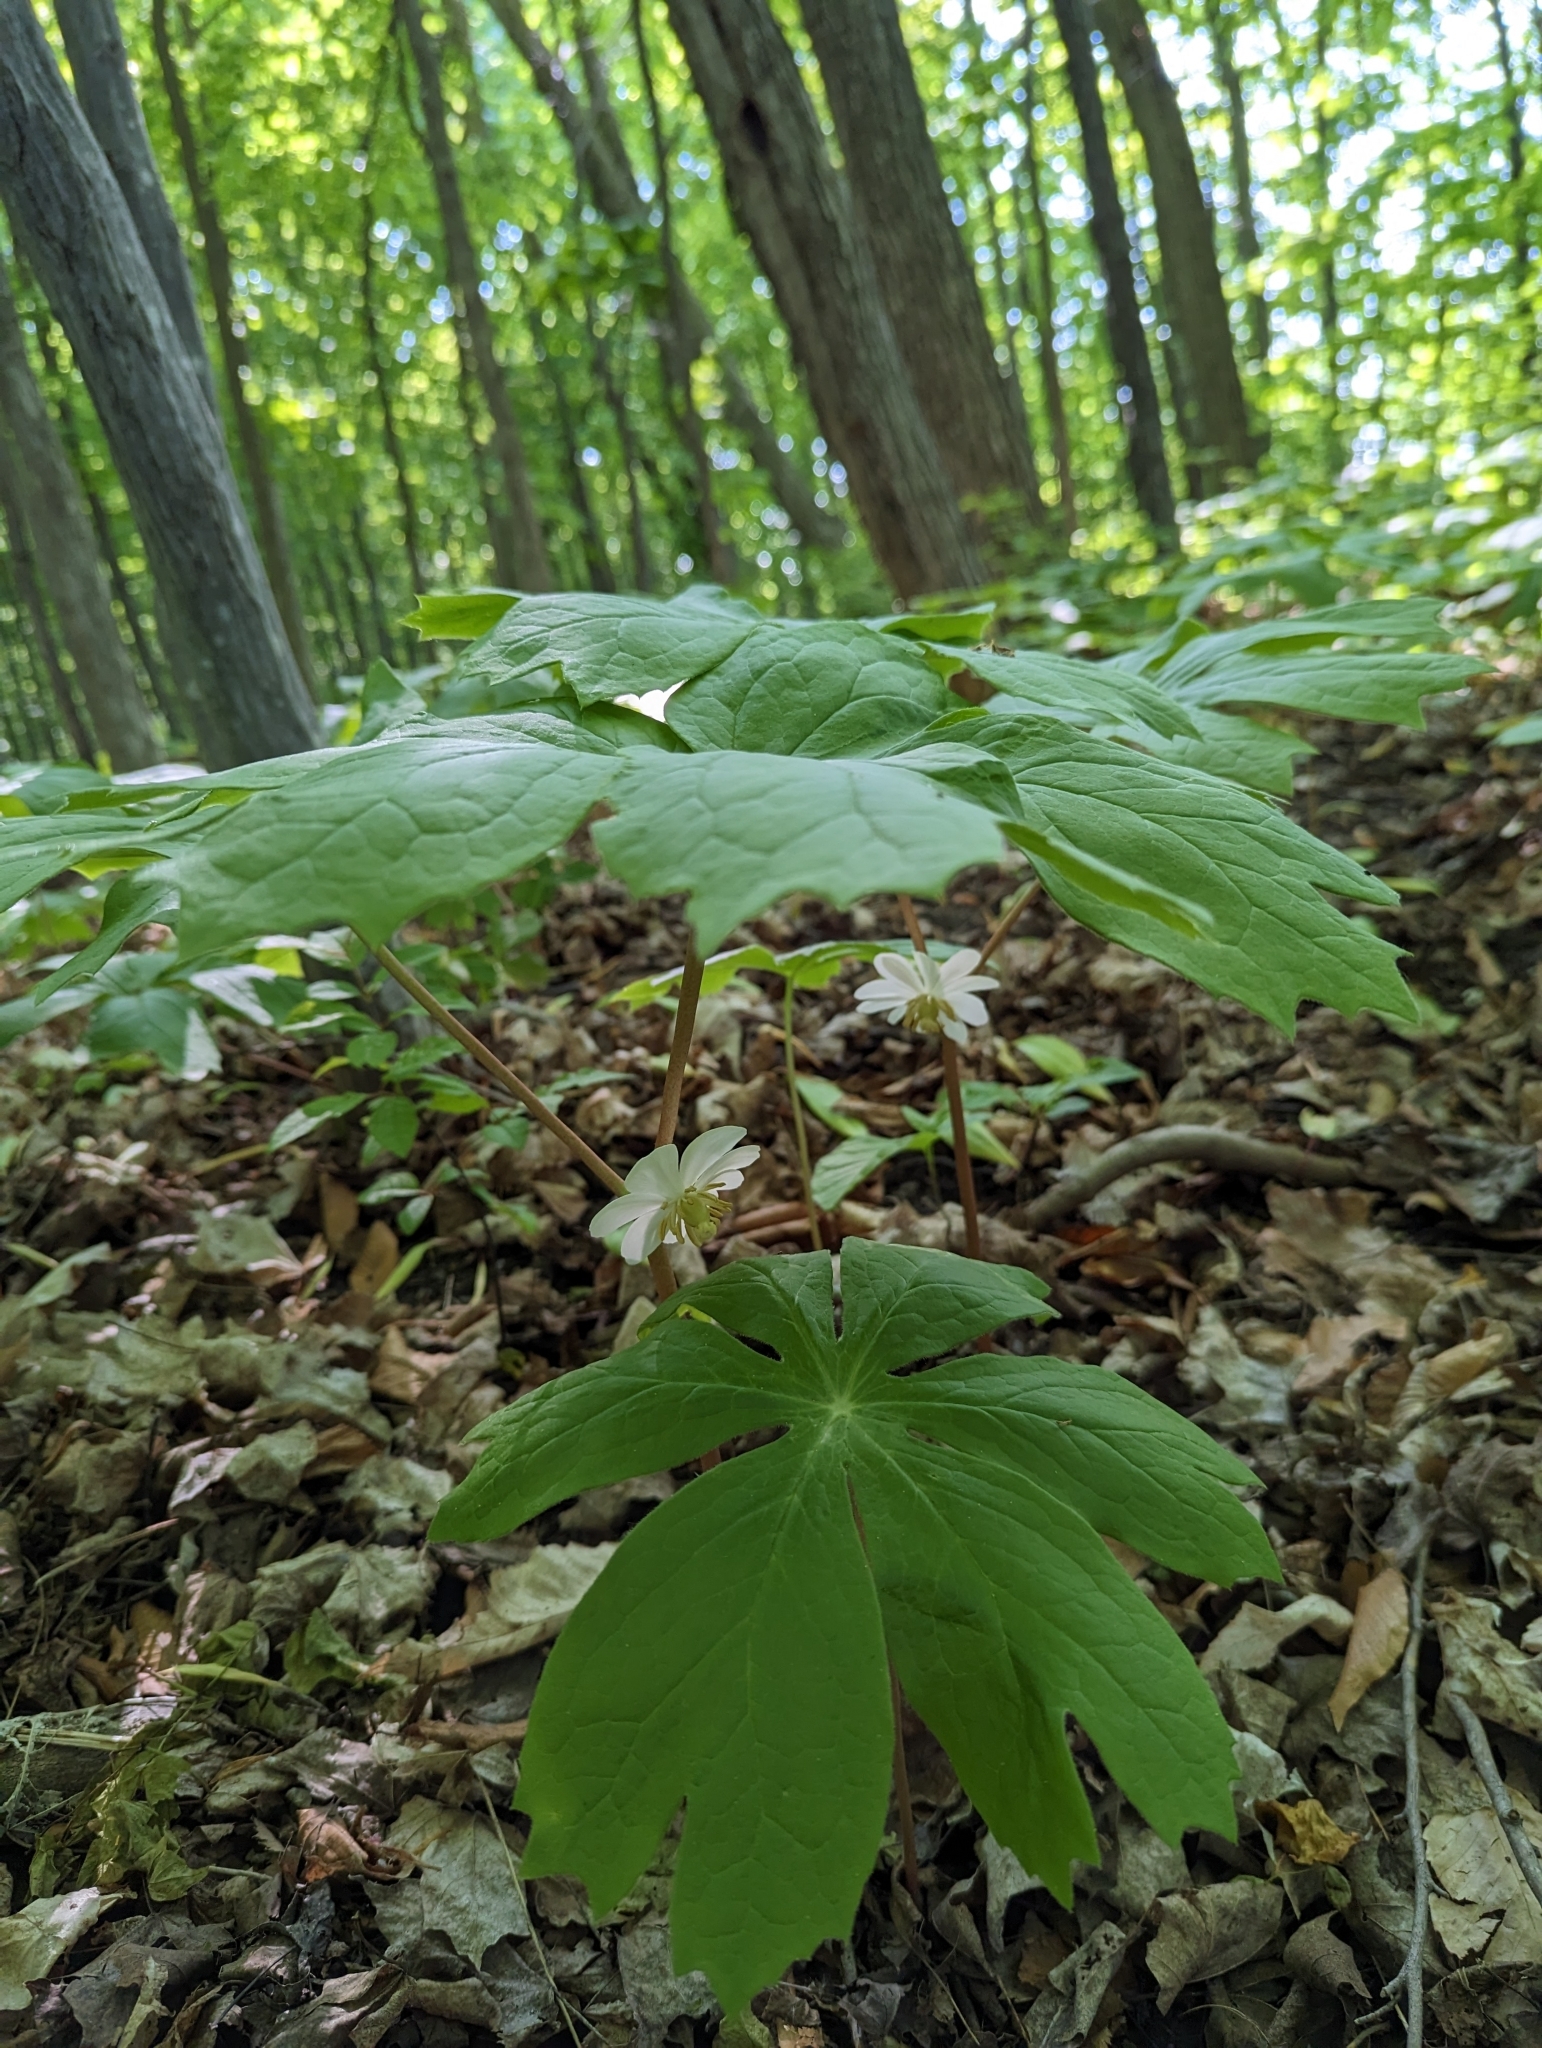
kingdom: Plantae
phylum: Tracheophyta
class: Magnoliopsida
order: Ranunculales
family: Berberidaceae
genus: Podophyllum
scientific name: Podophyllum peltatum
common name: Wild mandrake
